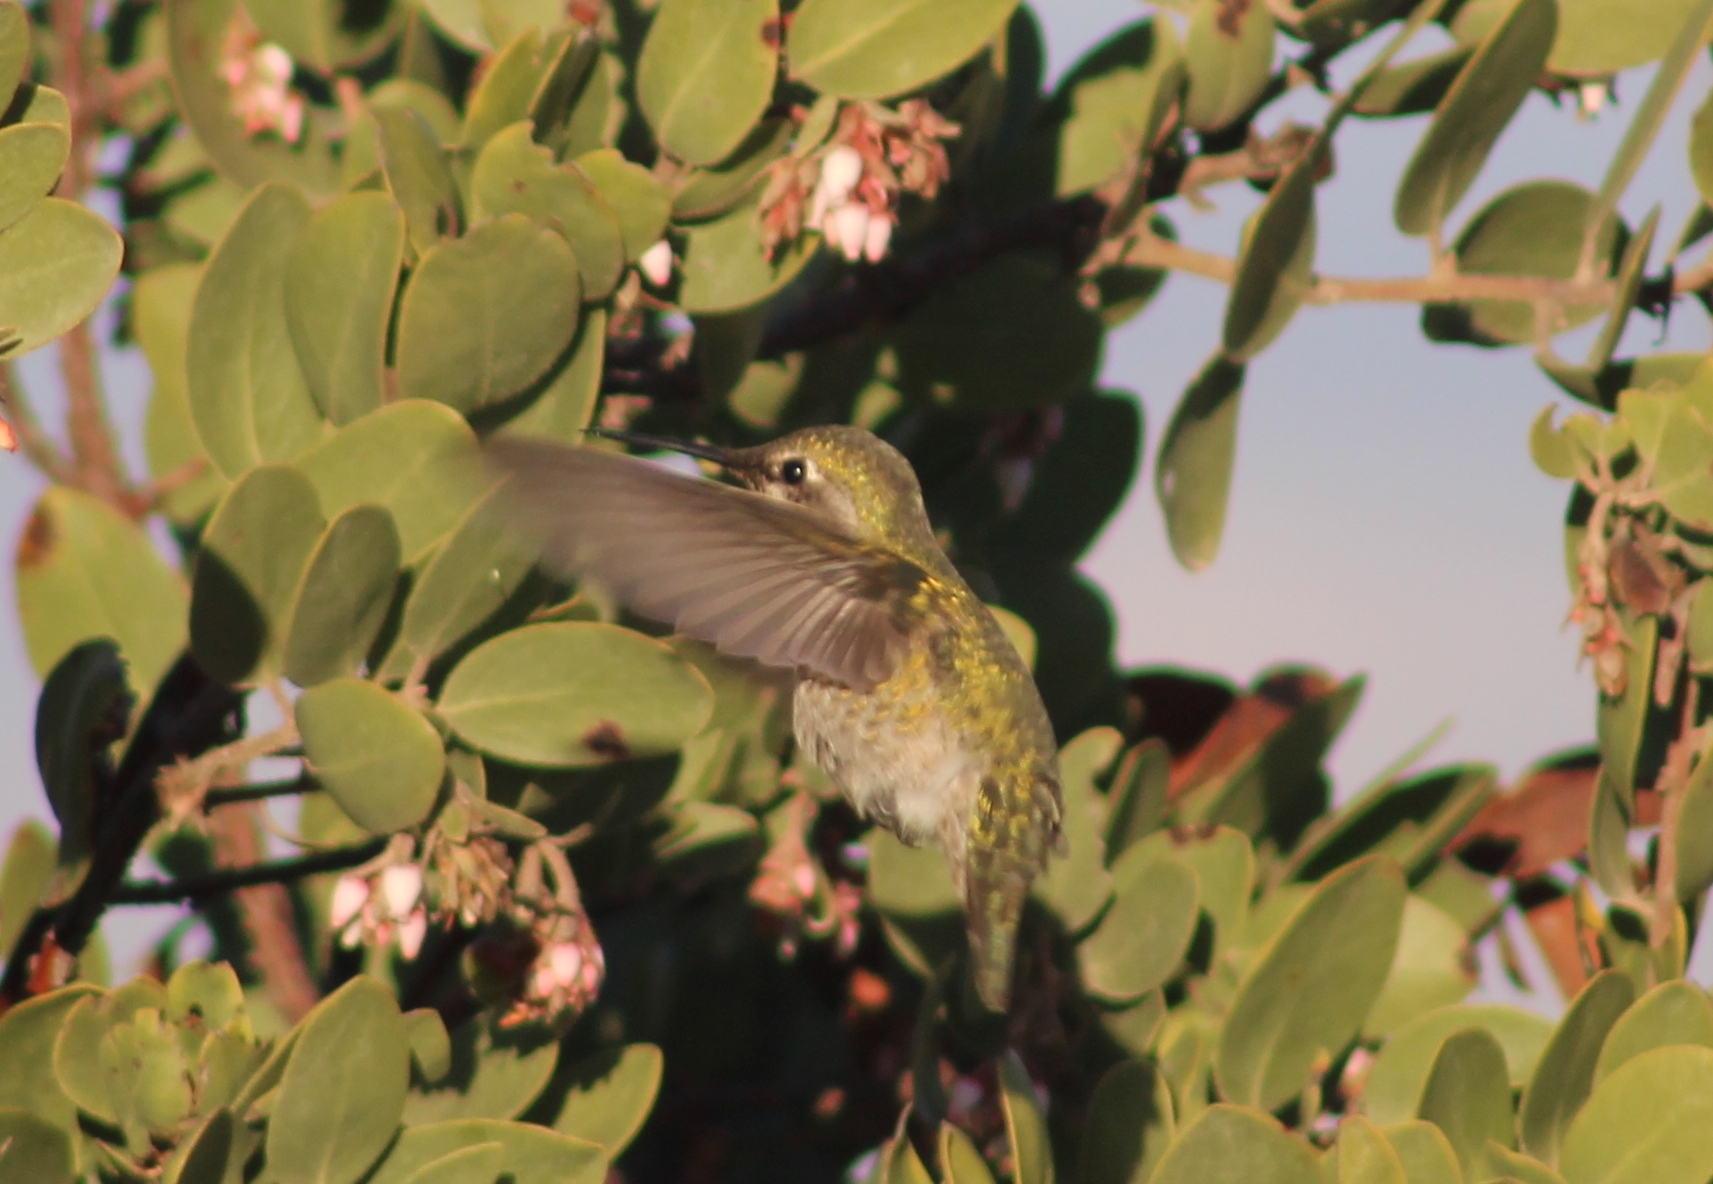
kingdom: Animalia
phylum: Chordata
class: Aves
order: Apodiformes
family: Trochilidae
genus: Calypte
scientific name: Calypte anna
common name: Anna's hummingbird
